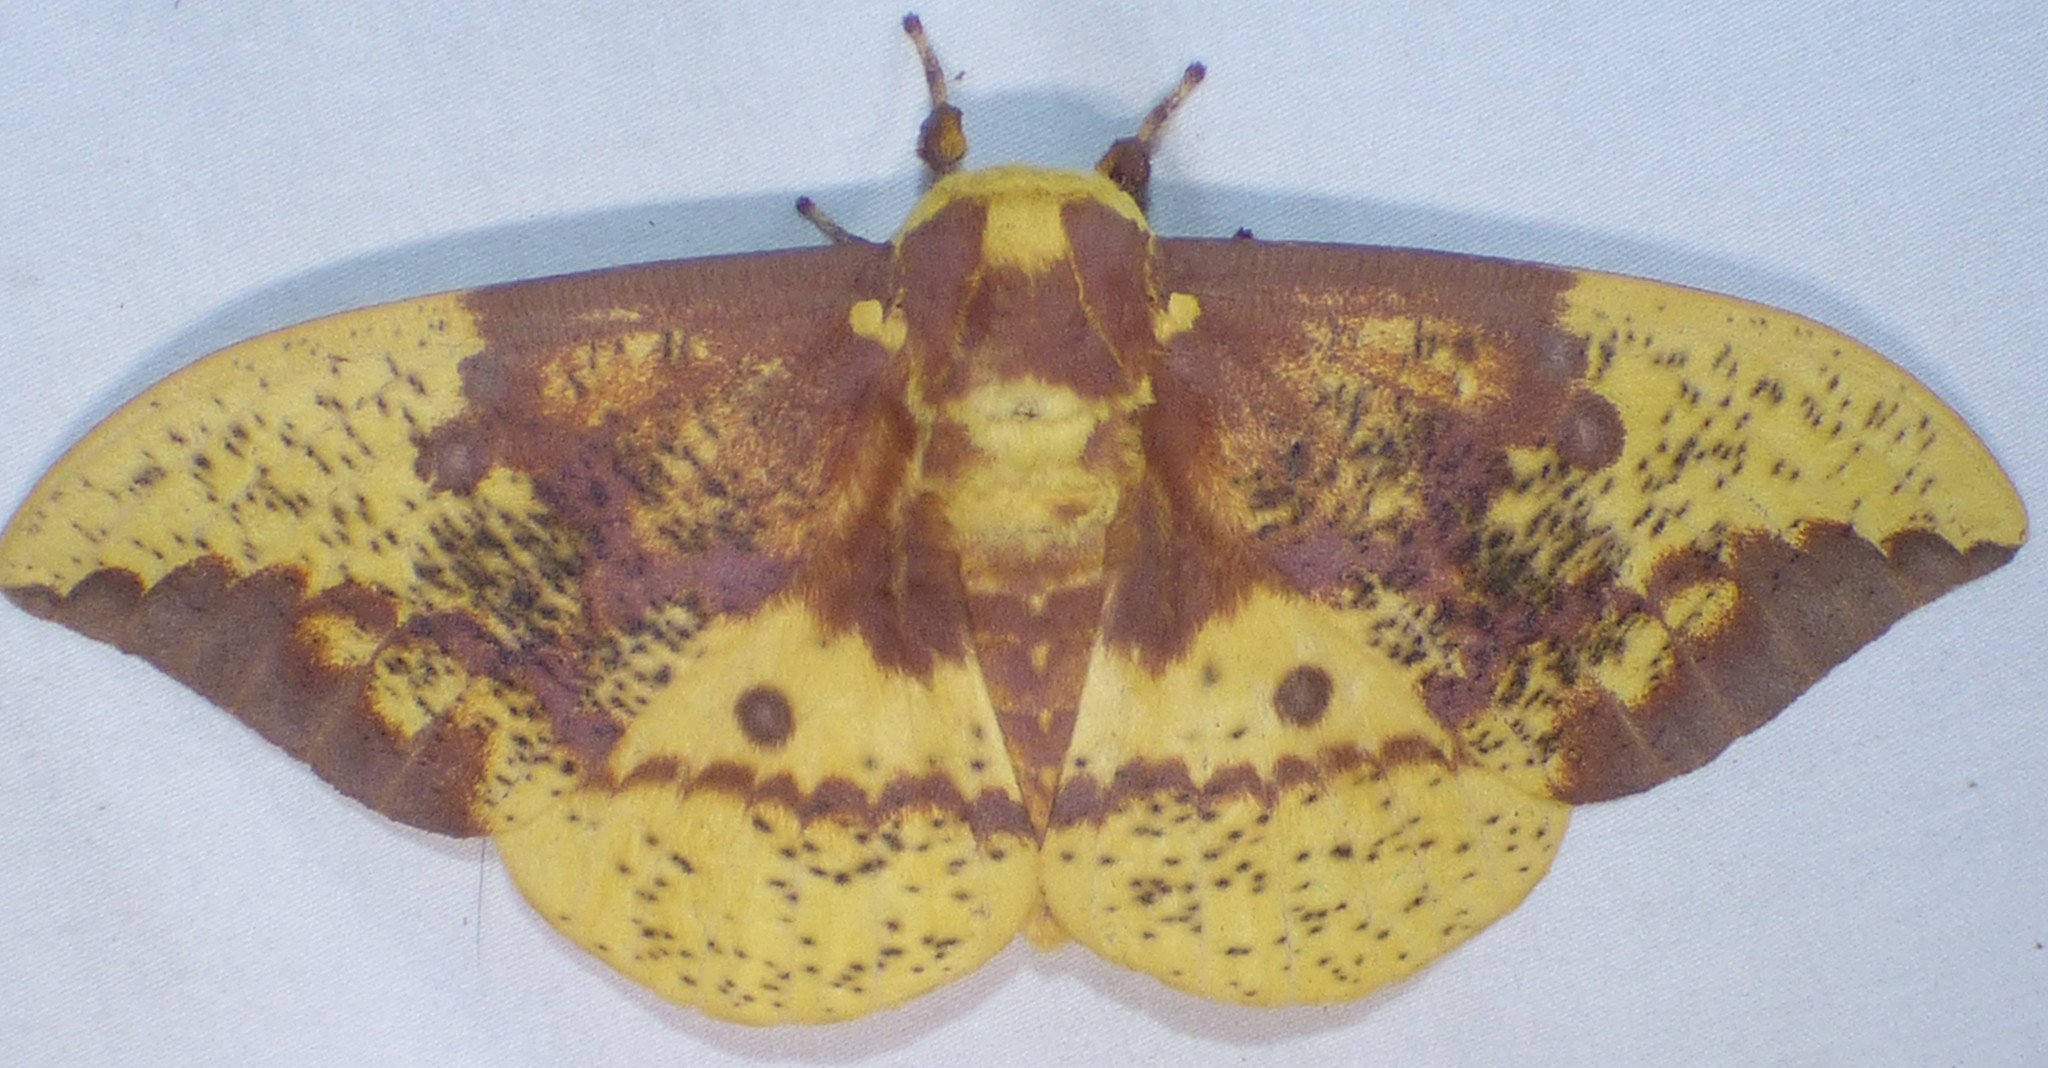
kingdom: Animalia
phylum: Arthropoda
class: Insecta
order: Lepidoptera
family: Saturniidae
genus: Eacles
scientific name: Eacles imperialis
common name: Imperial moth
